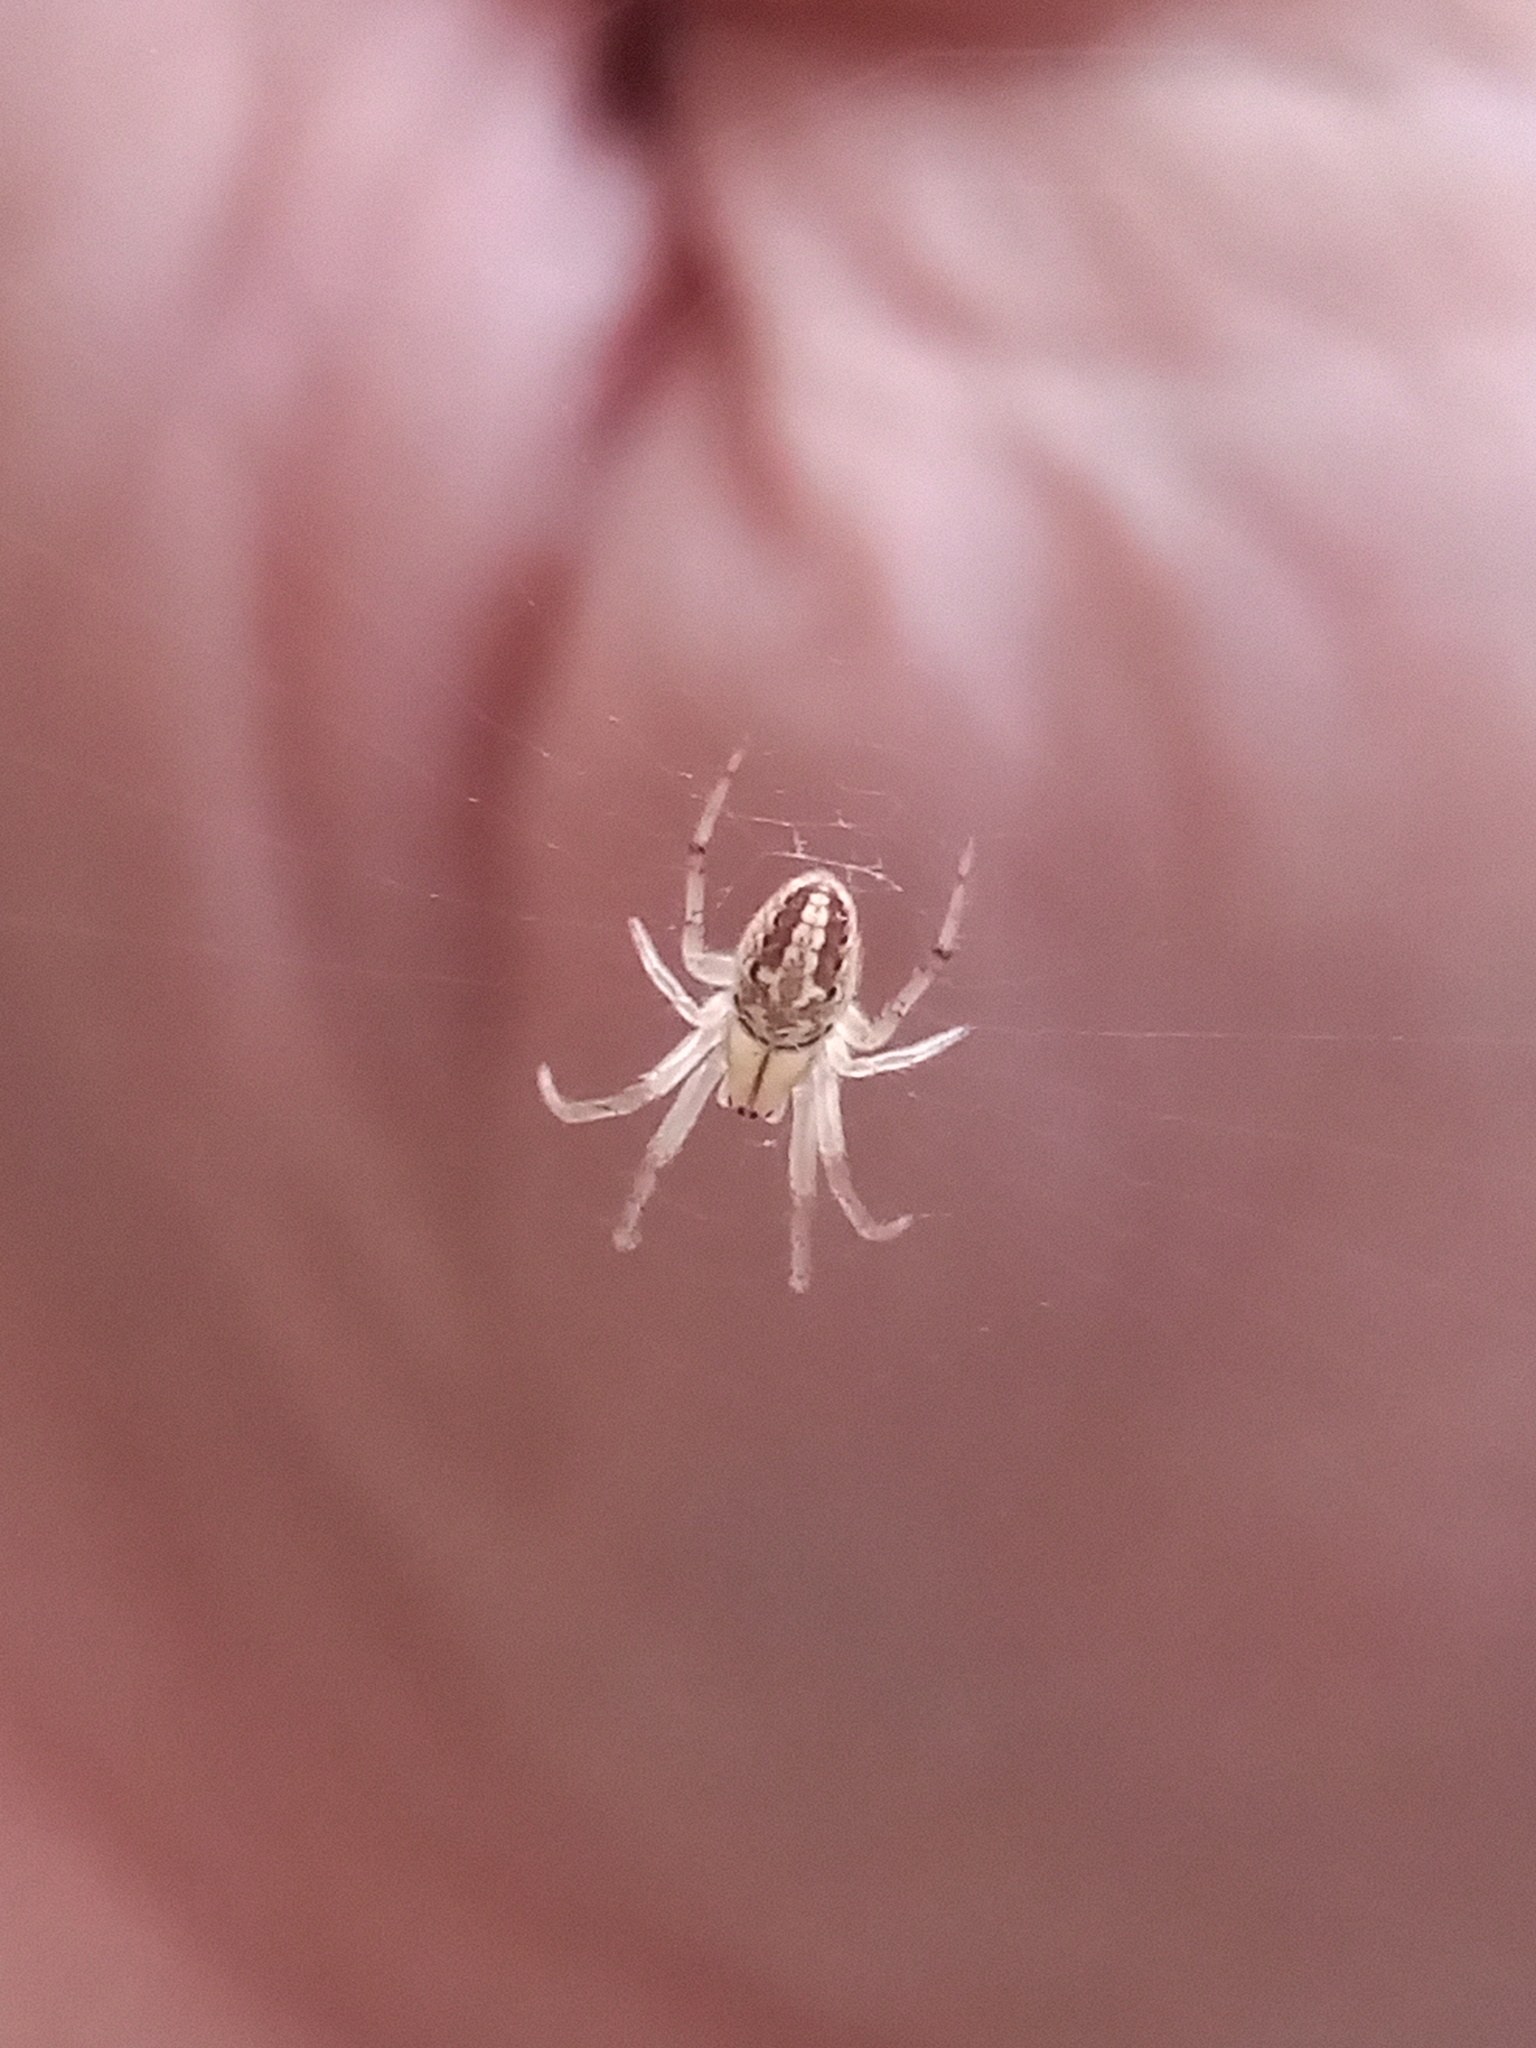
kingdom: Animalia
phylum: Arthropoda
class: Arachnida
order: Araneae
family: Araneidae
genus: Neoscona
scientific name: Neoscona arabesca
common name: Orb weavers
